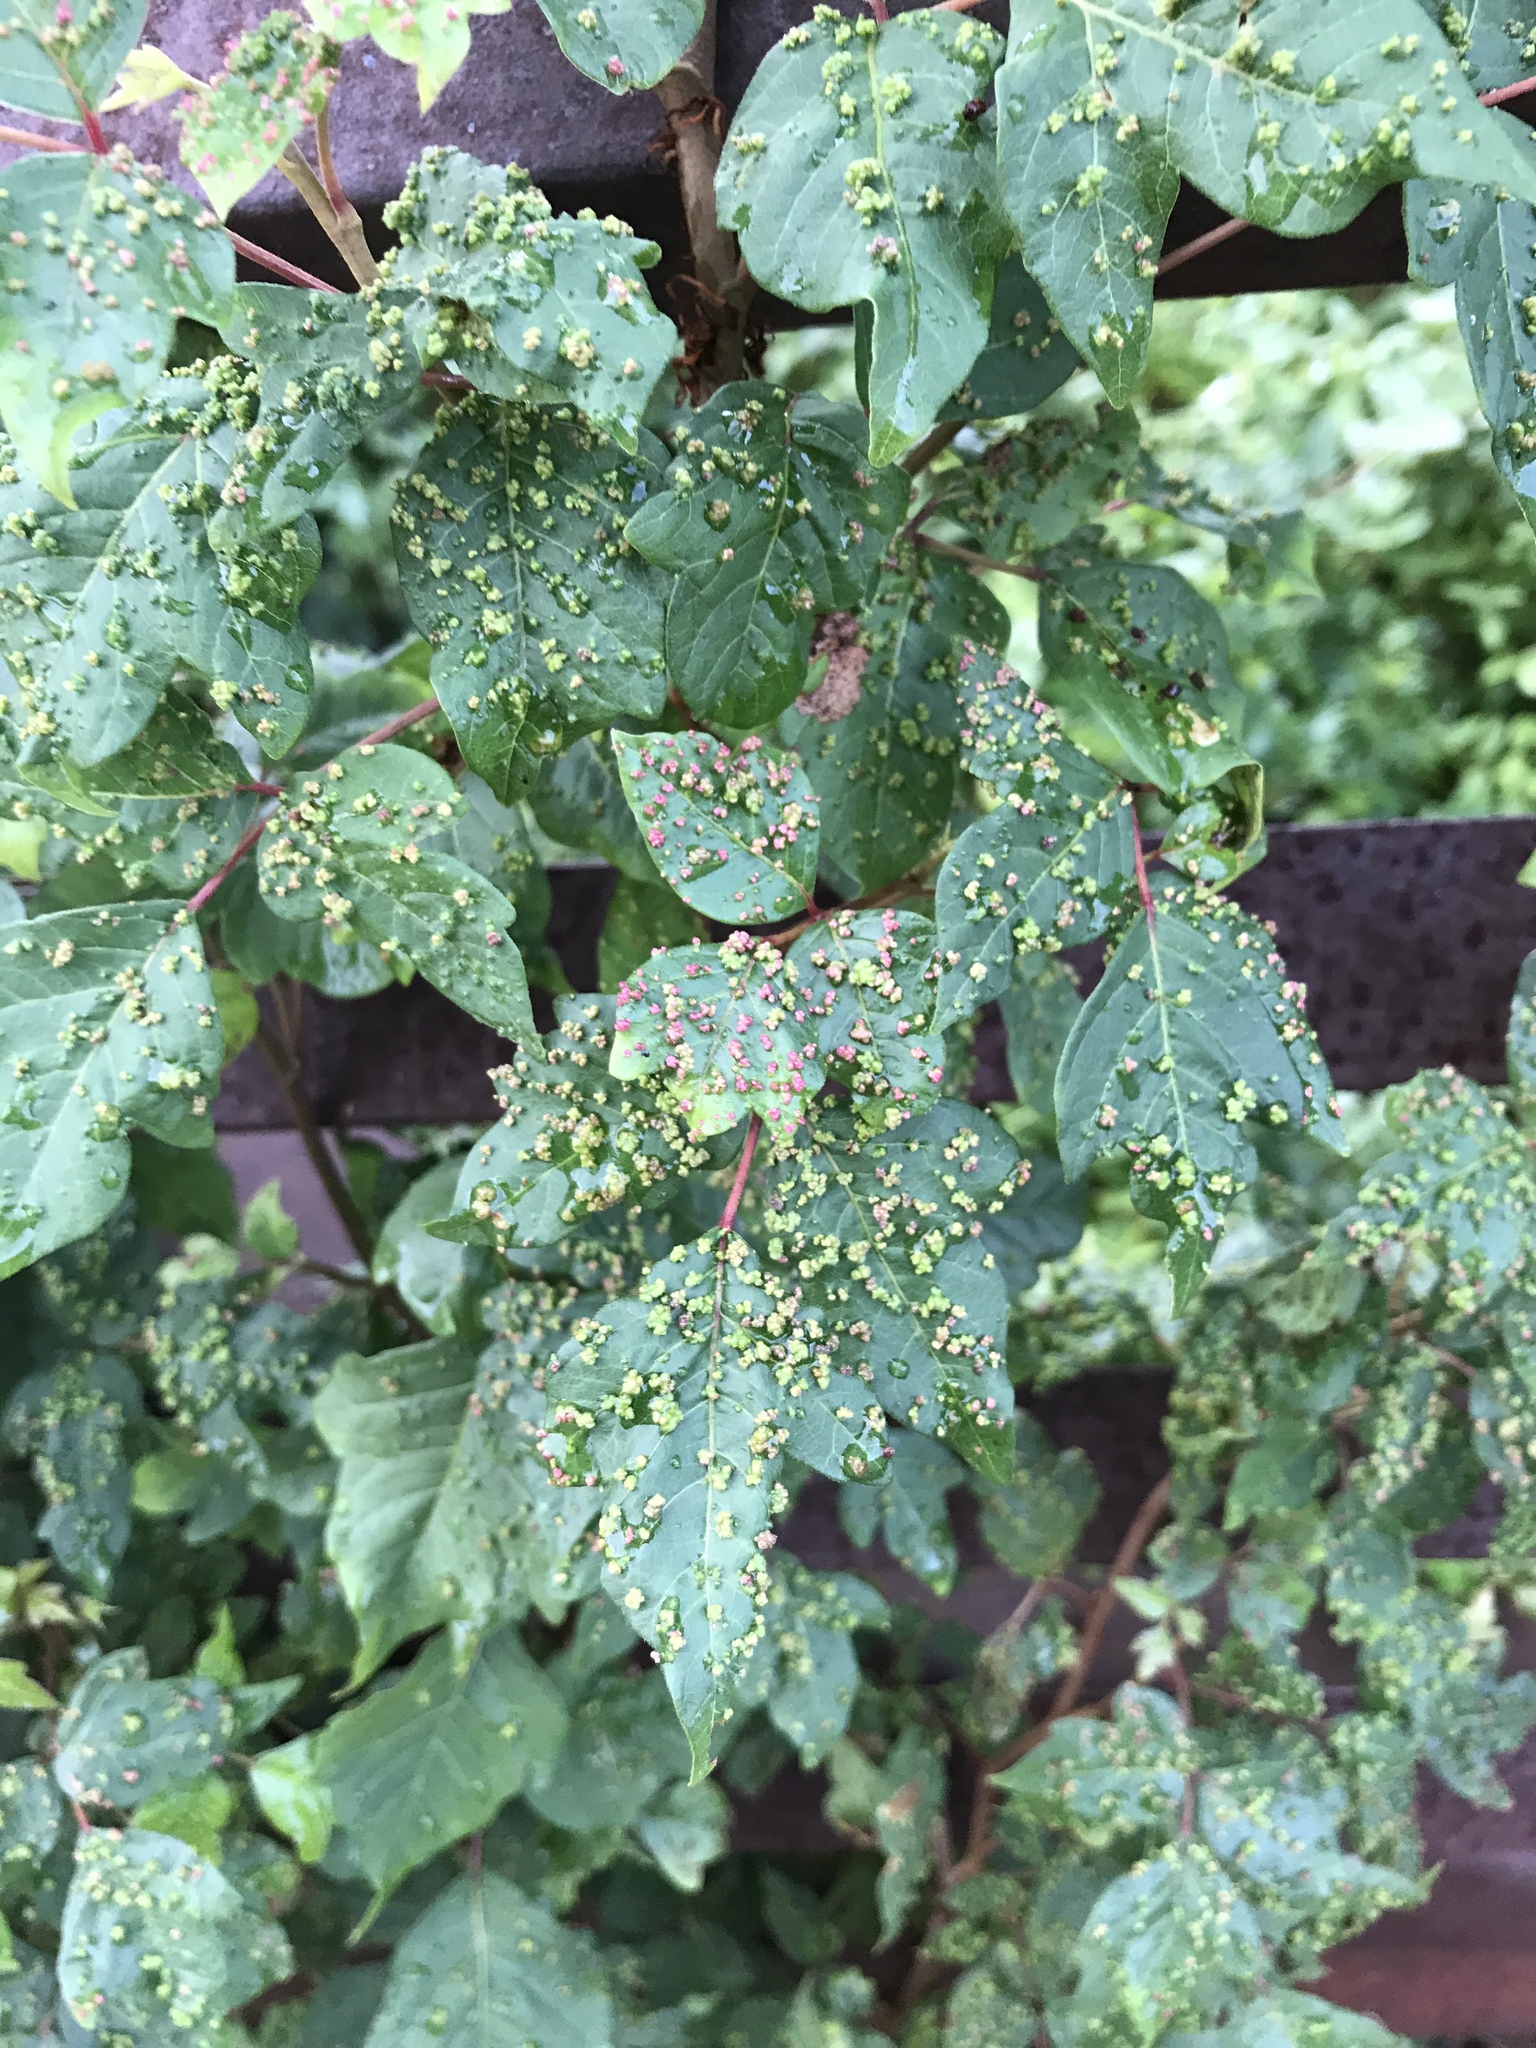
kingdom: Animalia
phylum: Arthropoda
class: Arachnida
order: Trombidiformes
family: Eriophyidae
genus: Aculops
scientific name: Aculops
